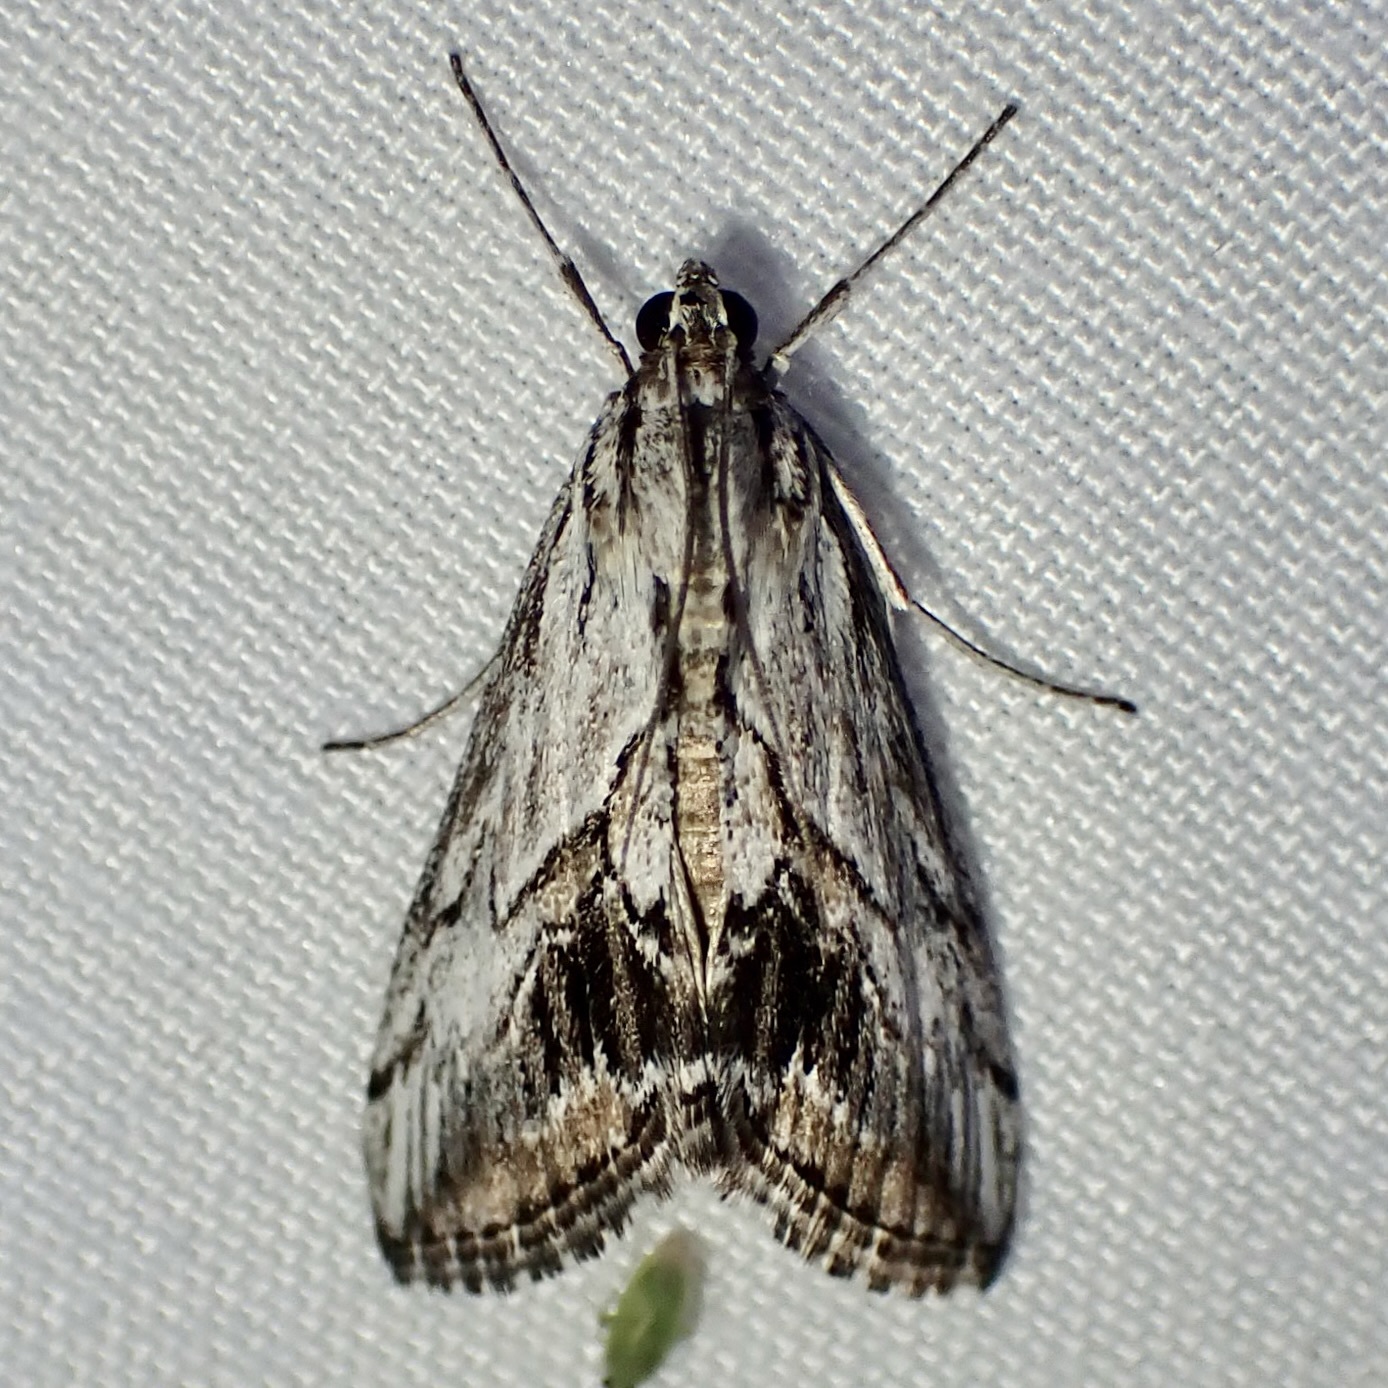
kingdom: Animalia
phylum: Arthropoda
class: Insecta
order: Lepidoptera
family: Crambidae
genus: Evergestis
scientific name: Evergestis simulatilis
